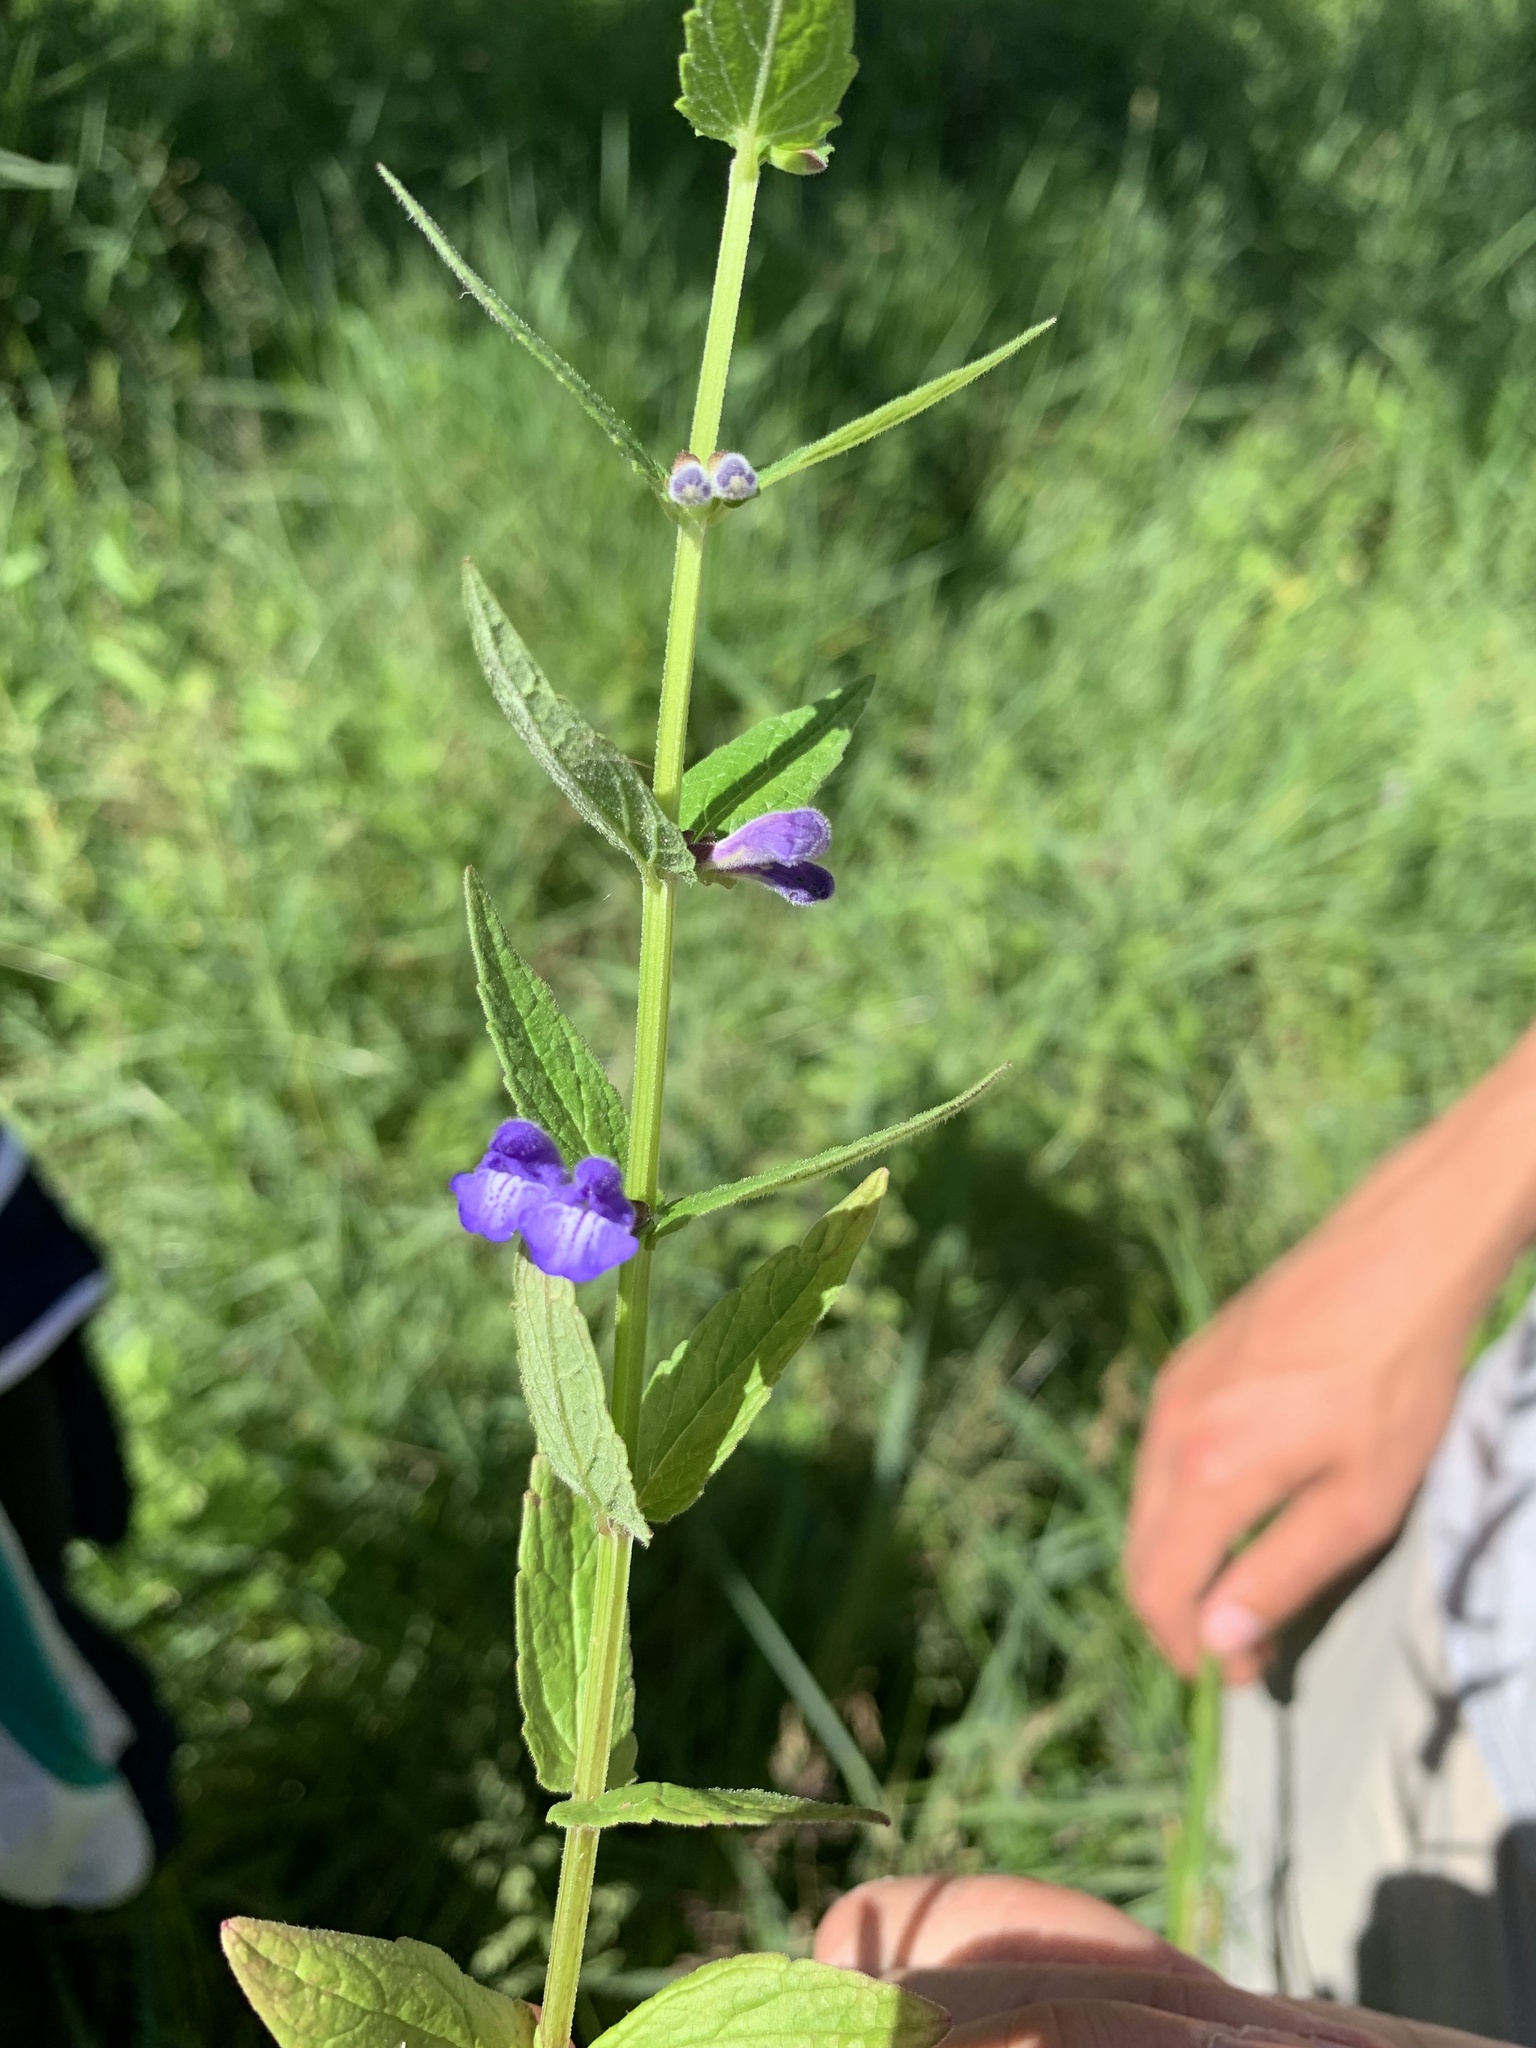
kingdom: Plantae
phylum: Tracheophyta
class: Magnoliopsida
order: Lamiales
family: Lamiaceae
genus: Scutellaria
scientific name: Scutellaria galericulata
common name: Skullcap
